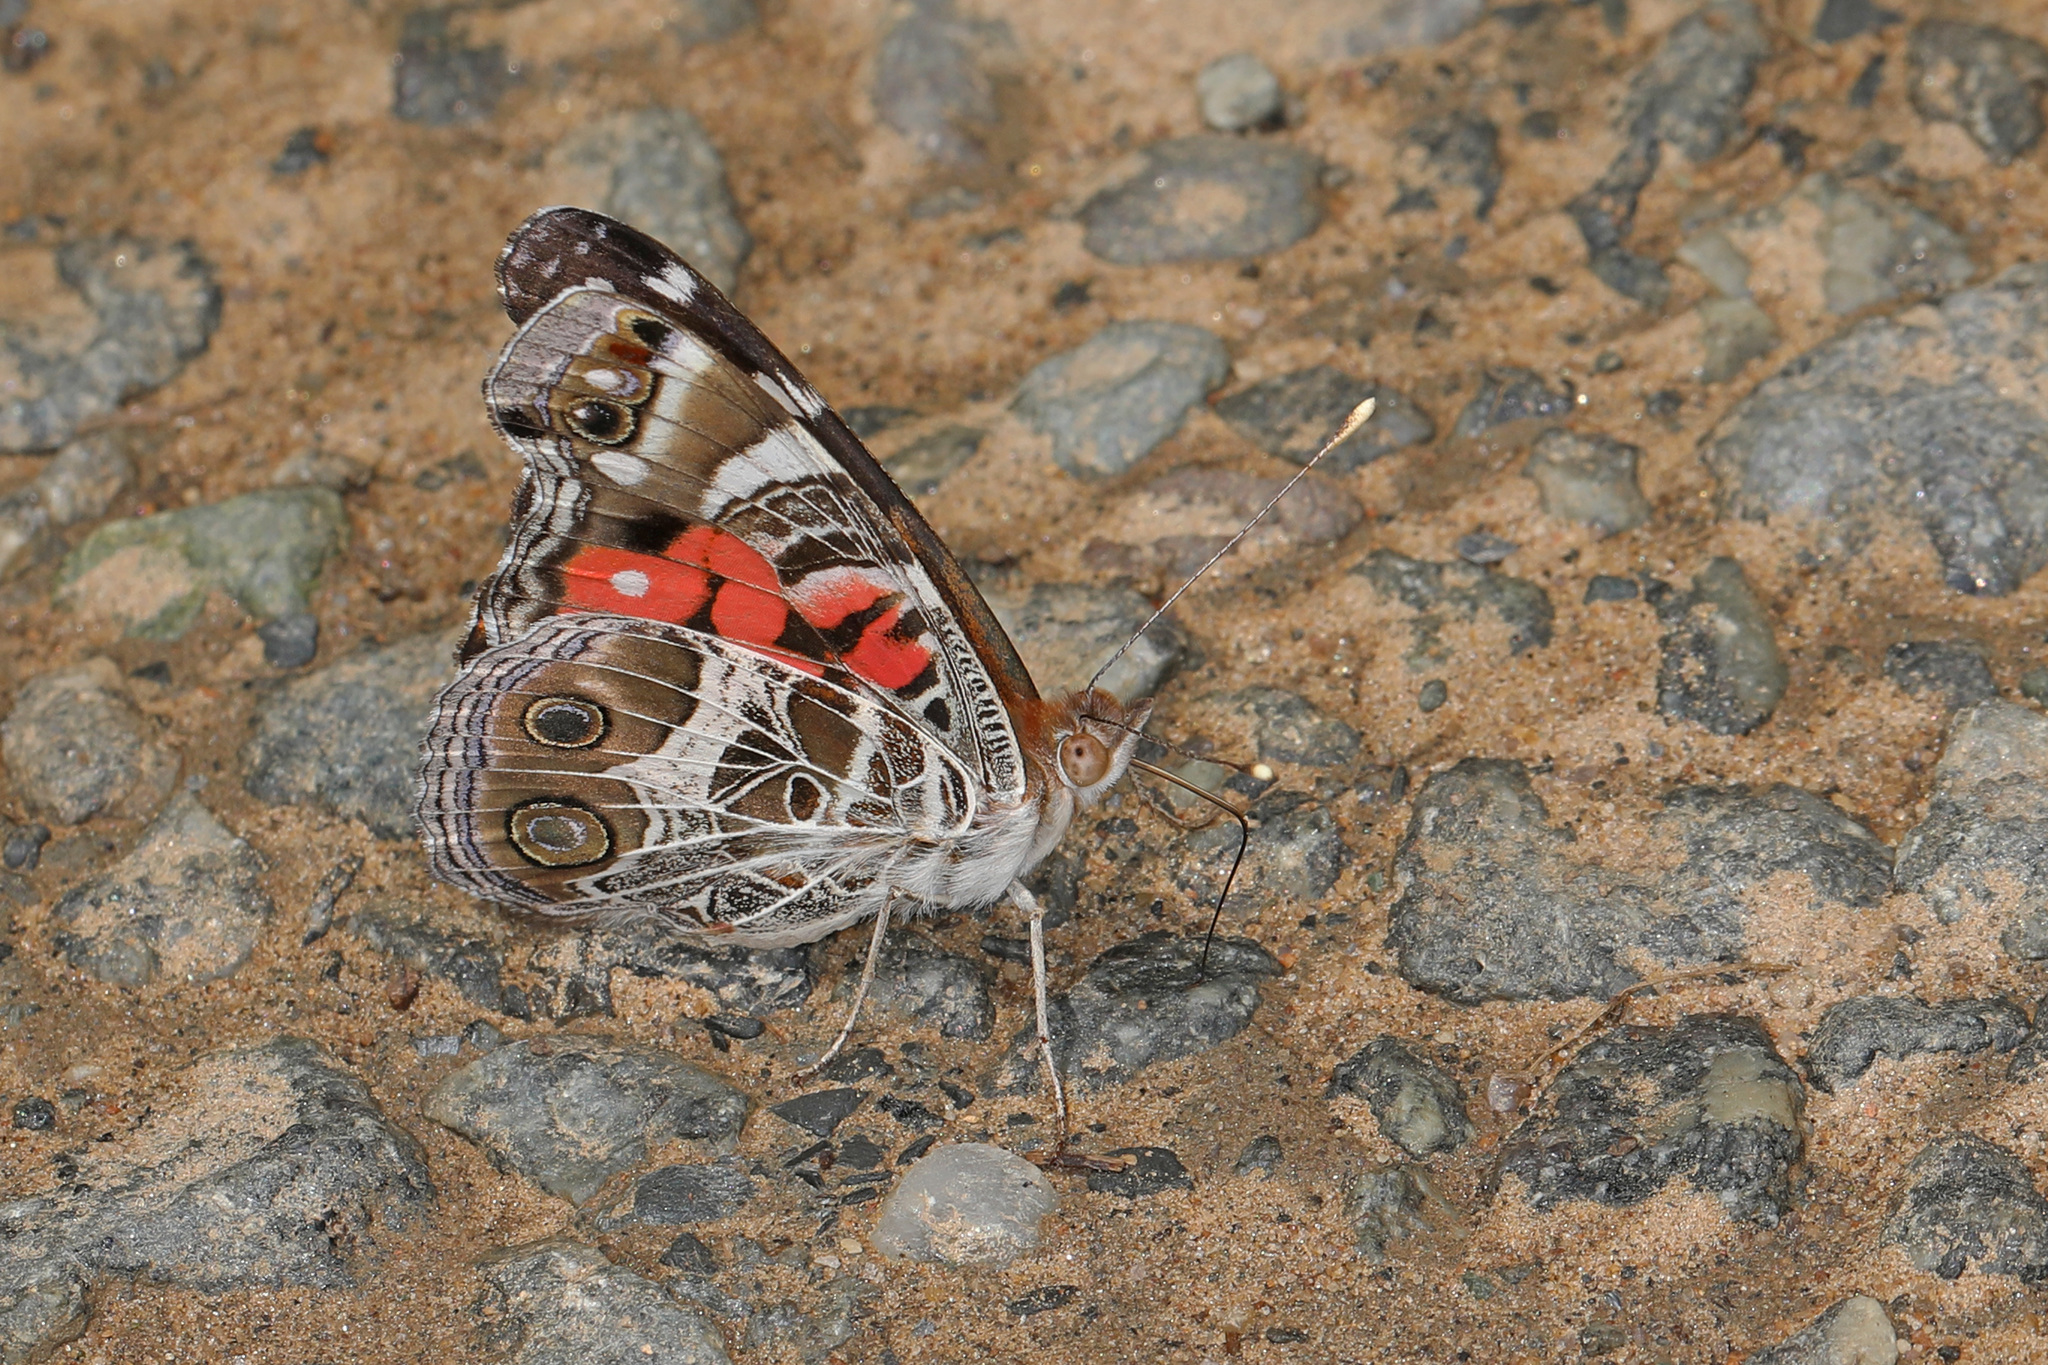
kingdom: Animalia
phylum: Arthropoda
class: Insecta
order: Lepidoptera
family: Nymphalidae
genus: Vanessa
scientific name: Vanessa virginiensis
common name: American lady
